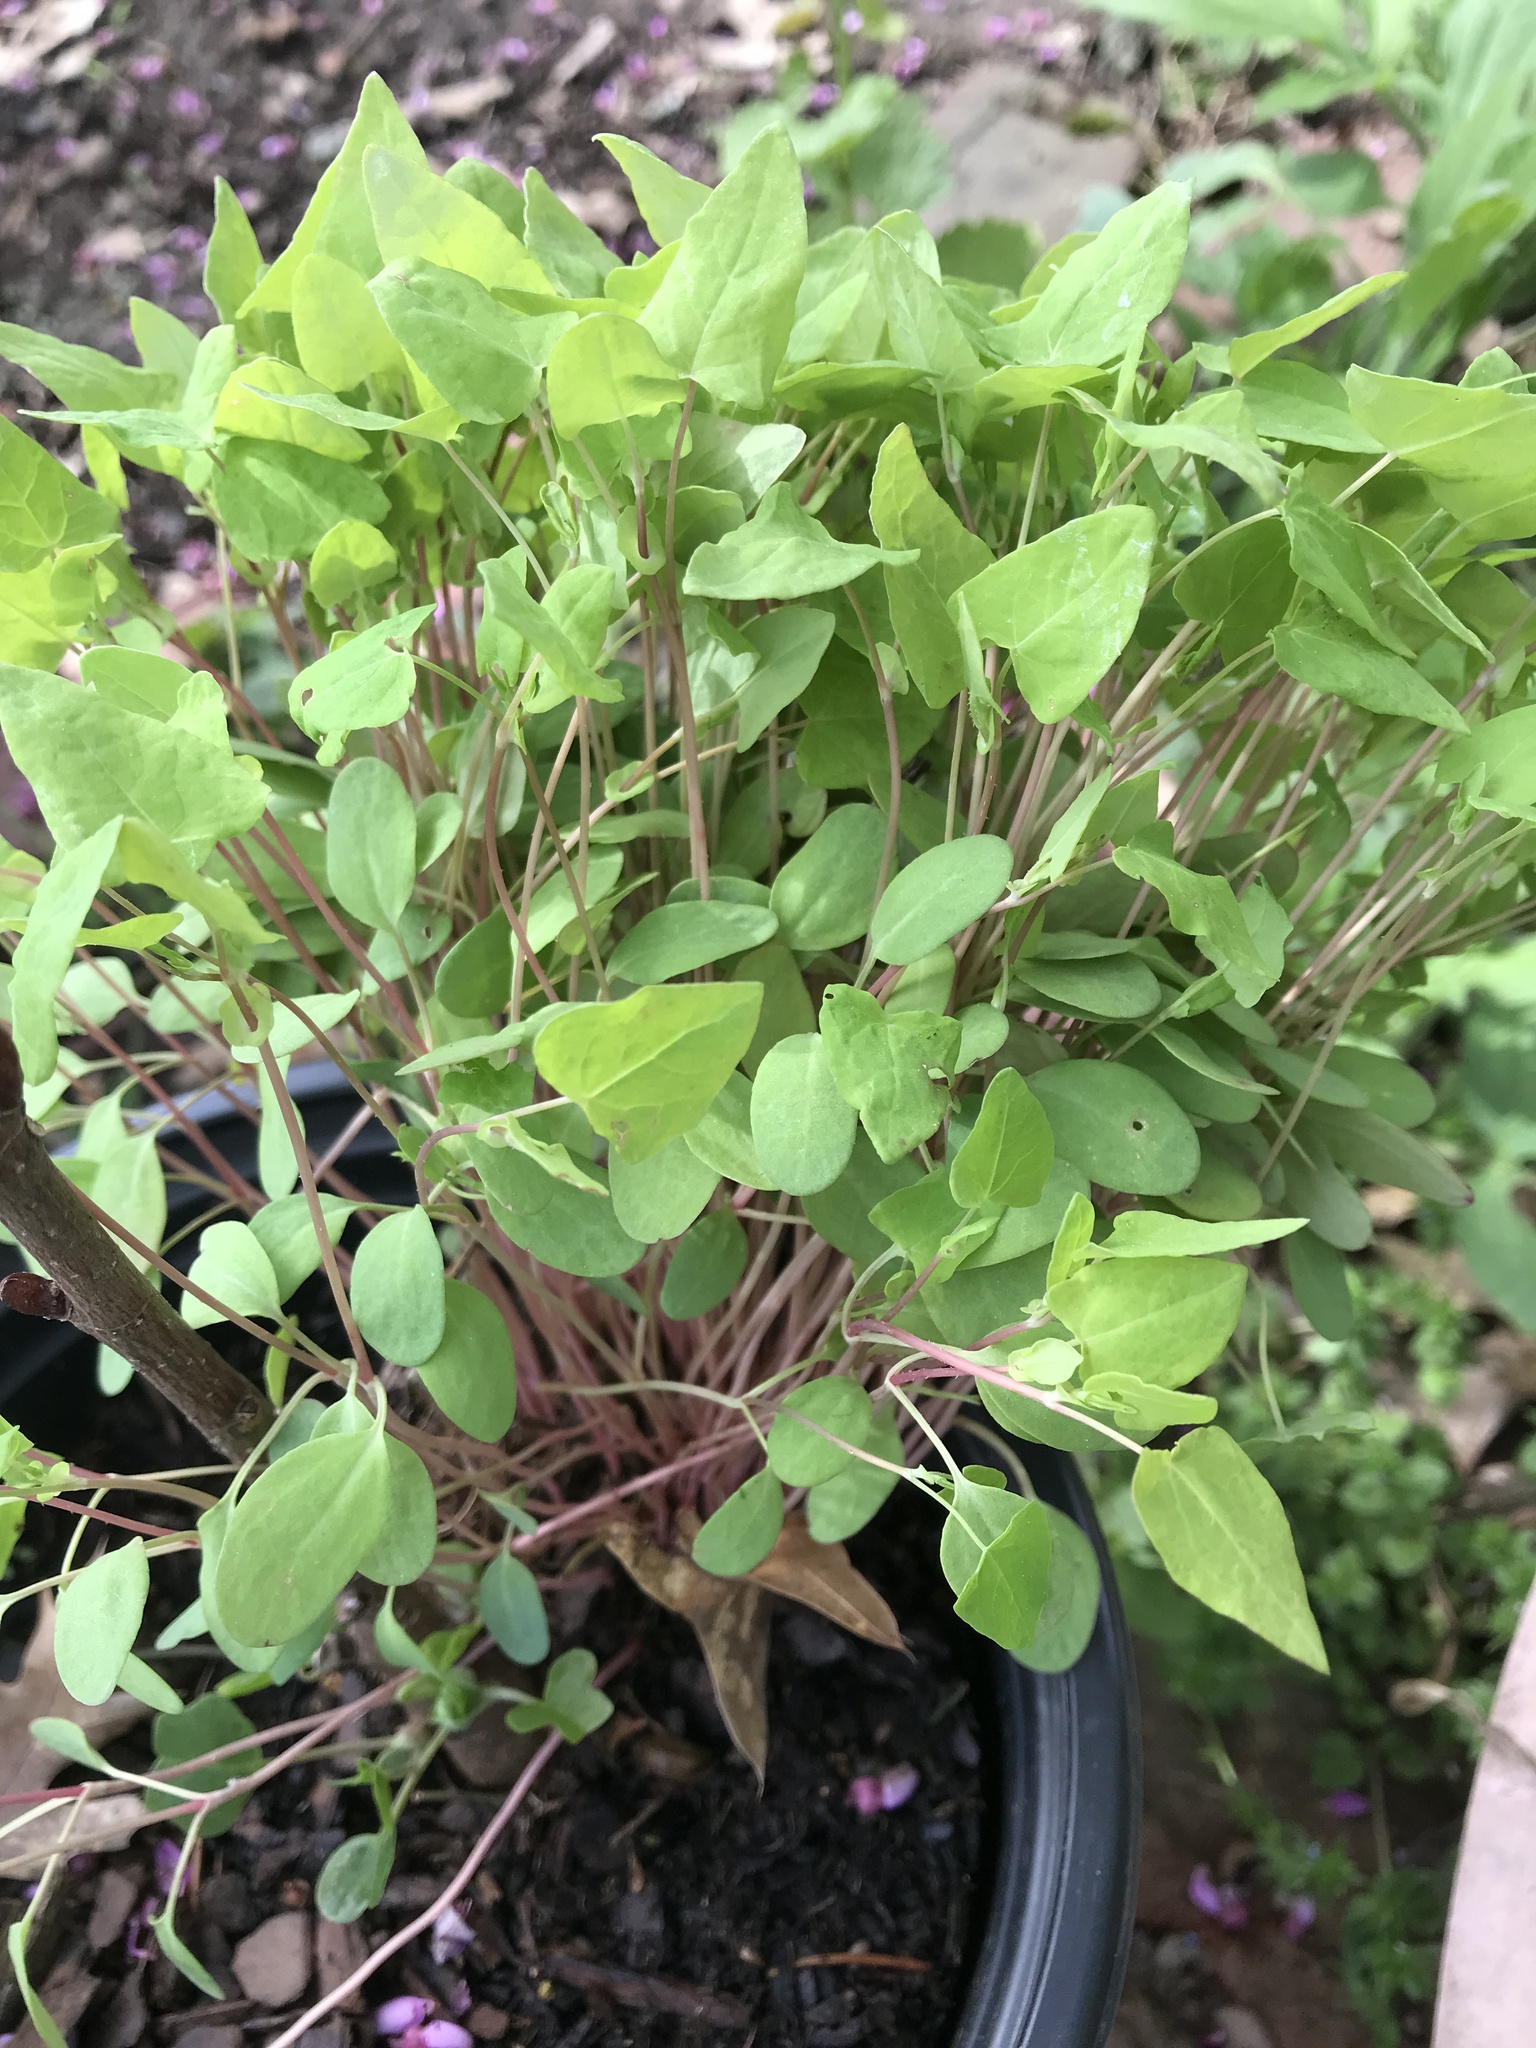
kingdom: Plantae
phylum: Tracheophyta
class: Magnoliopsida
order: Caryophyllales
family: Polygonaceae
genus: Persicaria
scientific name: Persicaria perfoliata
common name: Asiatic tearthumb
